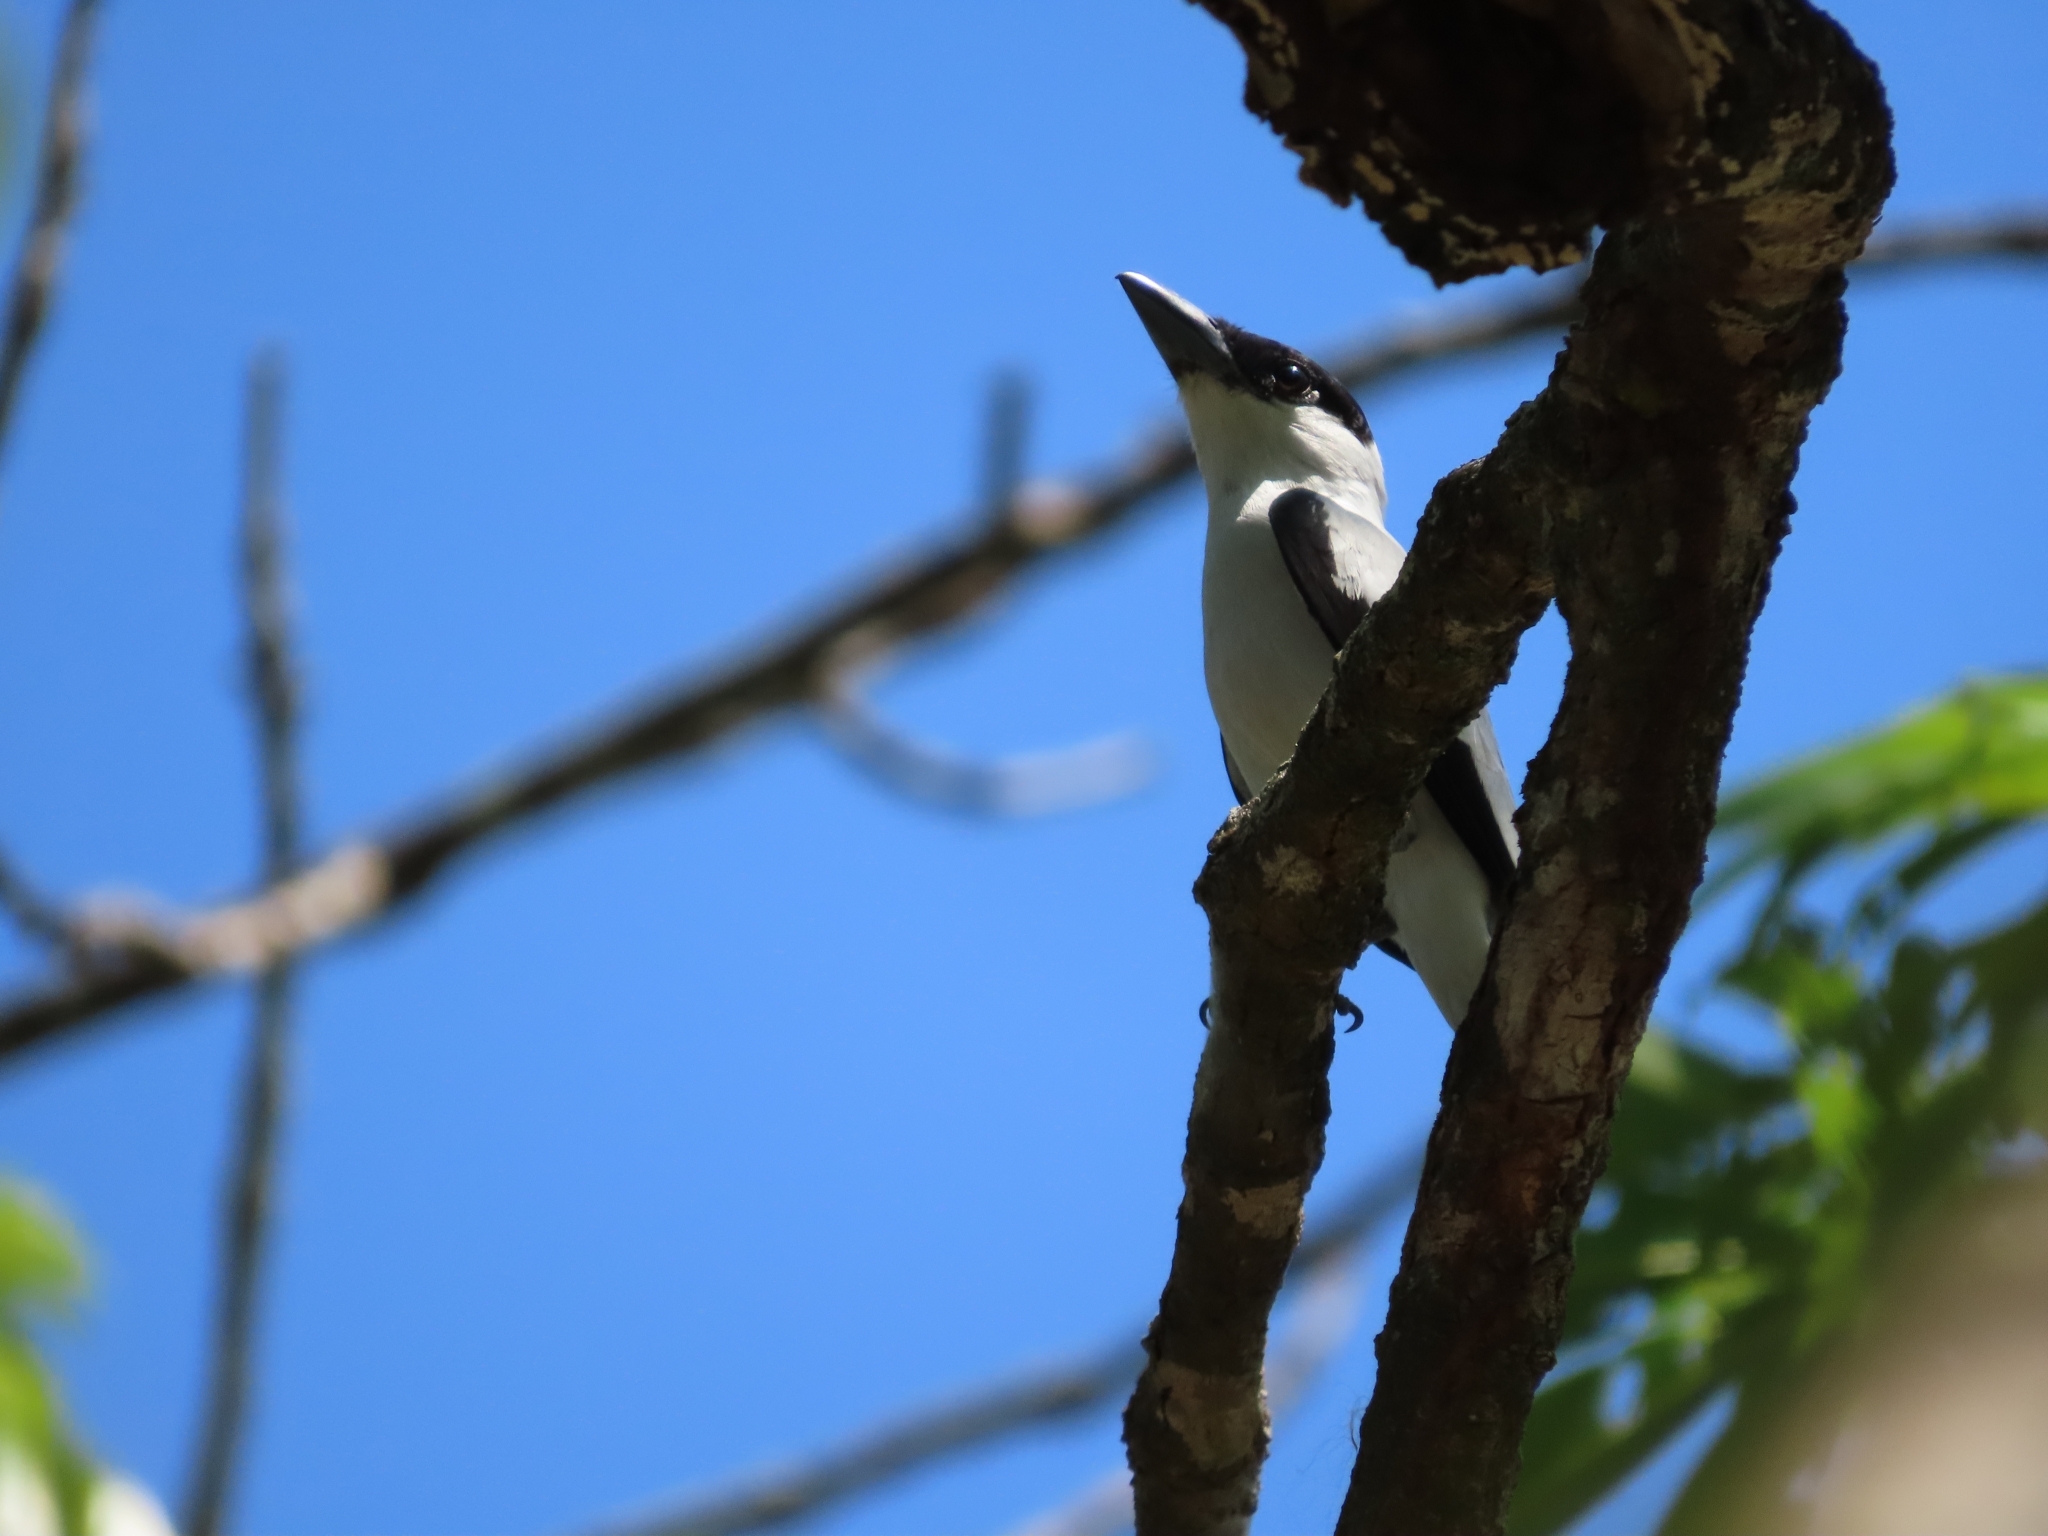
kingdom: Animalia
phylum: Chordata
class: Aves
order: Passeriformes
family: Cotingidae
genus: Tityra
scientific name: Tityra inquisitor
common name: Black-crowned tityra
